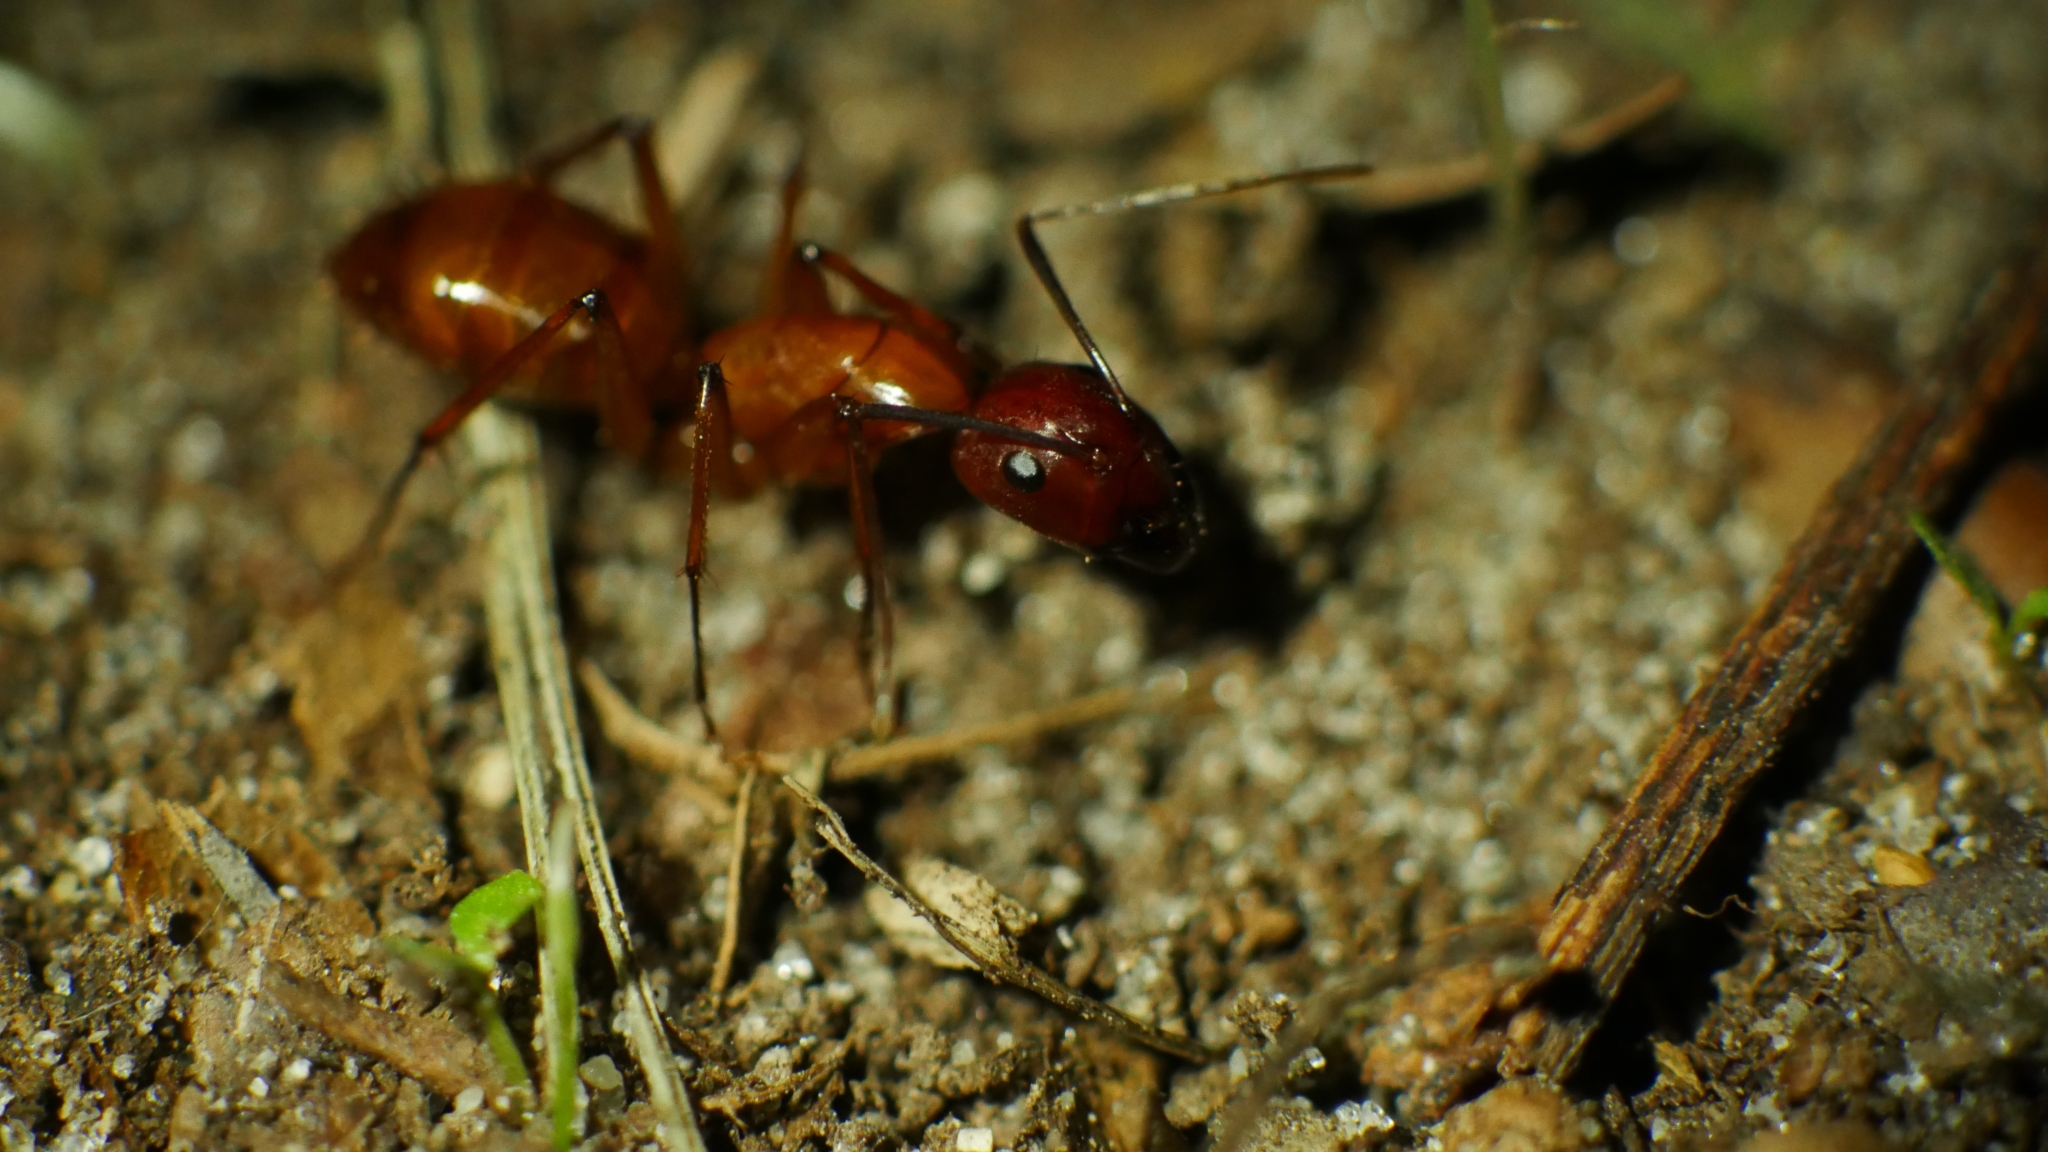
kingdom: Animalia
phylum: Arthropoda
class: Insecta
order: Hymenoptera
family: Formicidae
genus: Camponotus
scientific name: Camponotus castaneus
